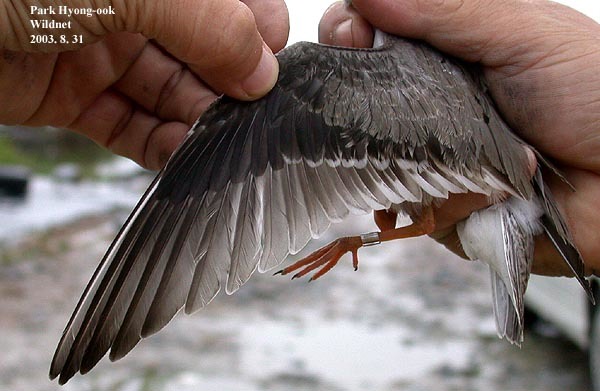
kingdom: Animalia
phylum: Chordata
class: Aves
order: Charadriiformes
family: Scolopacidae
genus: Xenus
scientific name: Xenus cinereus
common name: Terek sandpiper
